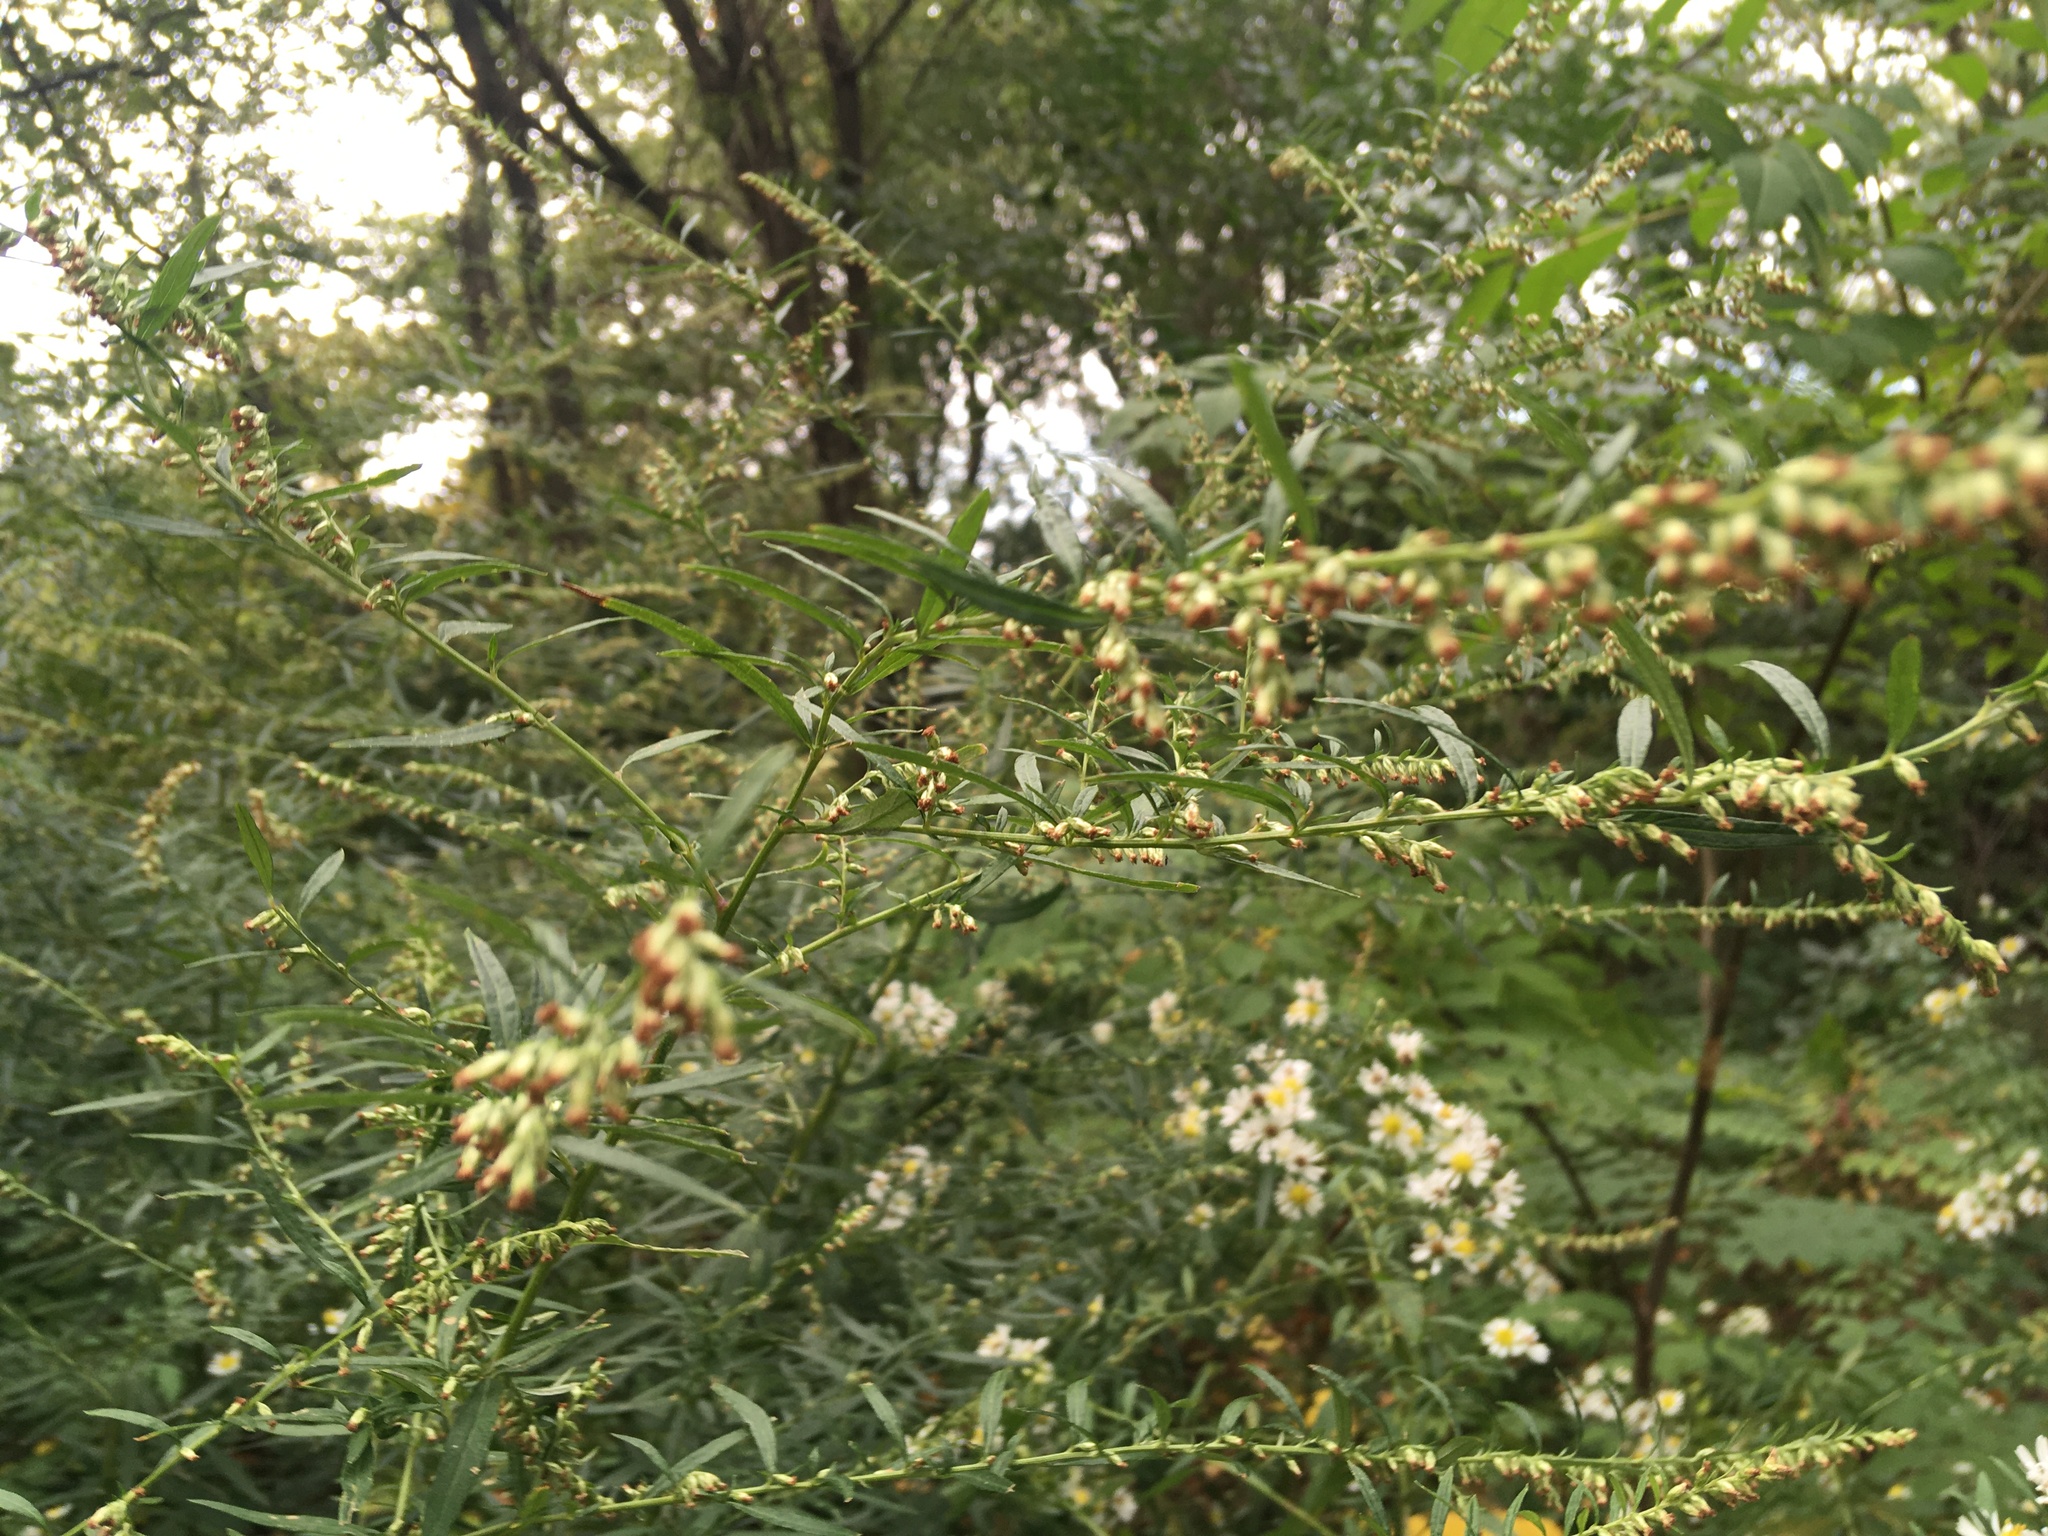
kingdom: Plantae
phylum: Tracheophyta
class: Magnoliopsida
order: Asterales
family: Asteraceae
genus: Artemisia
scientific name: Artemisia vulgaris
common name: Mugwort
